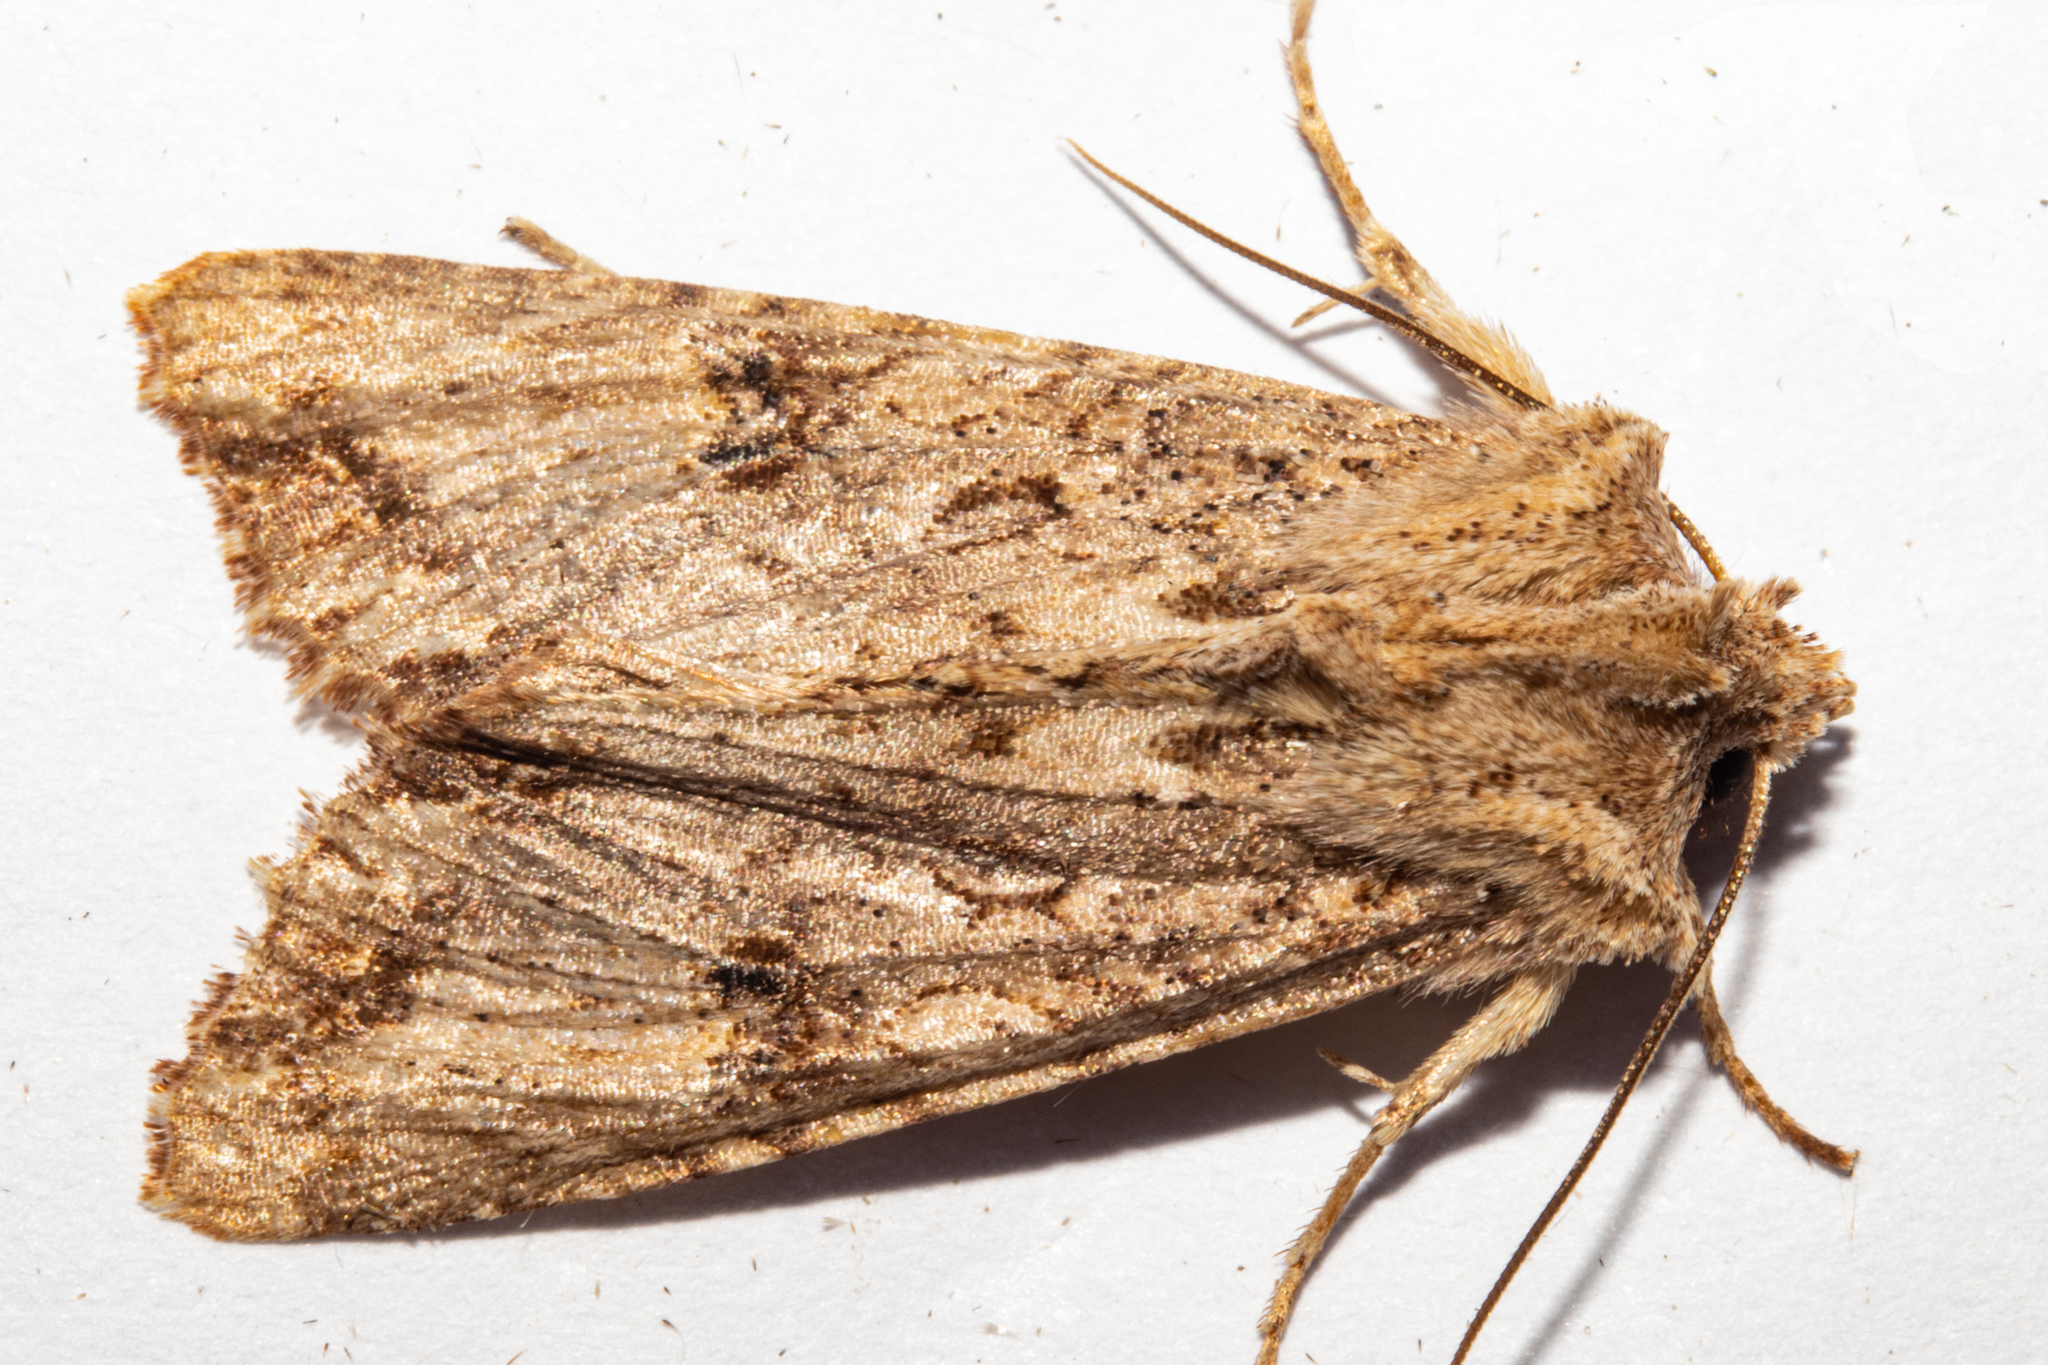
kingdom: Animalia
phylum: Arthropoda
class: Insecta
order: Lepidoptera
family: Noctuidae
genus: Meterana
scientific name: Meterana pascoei
